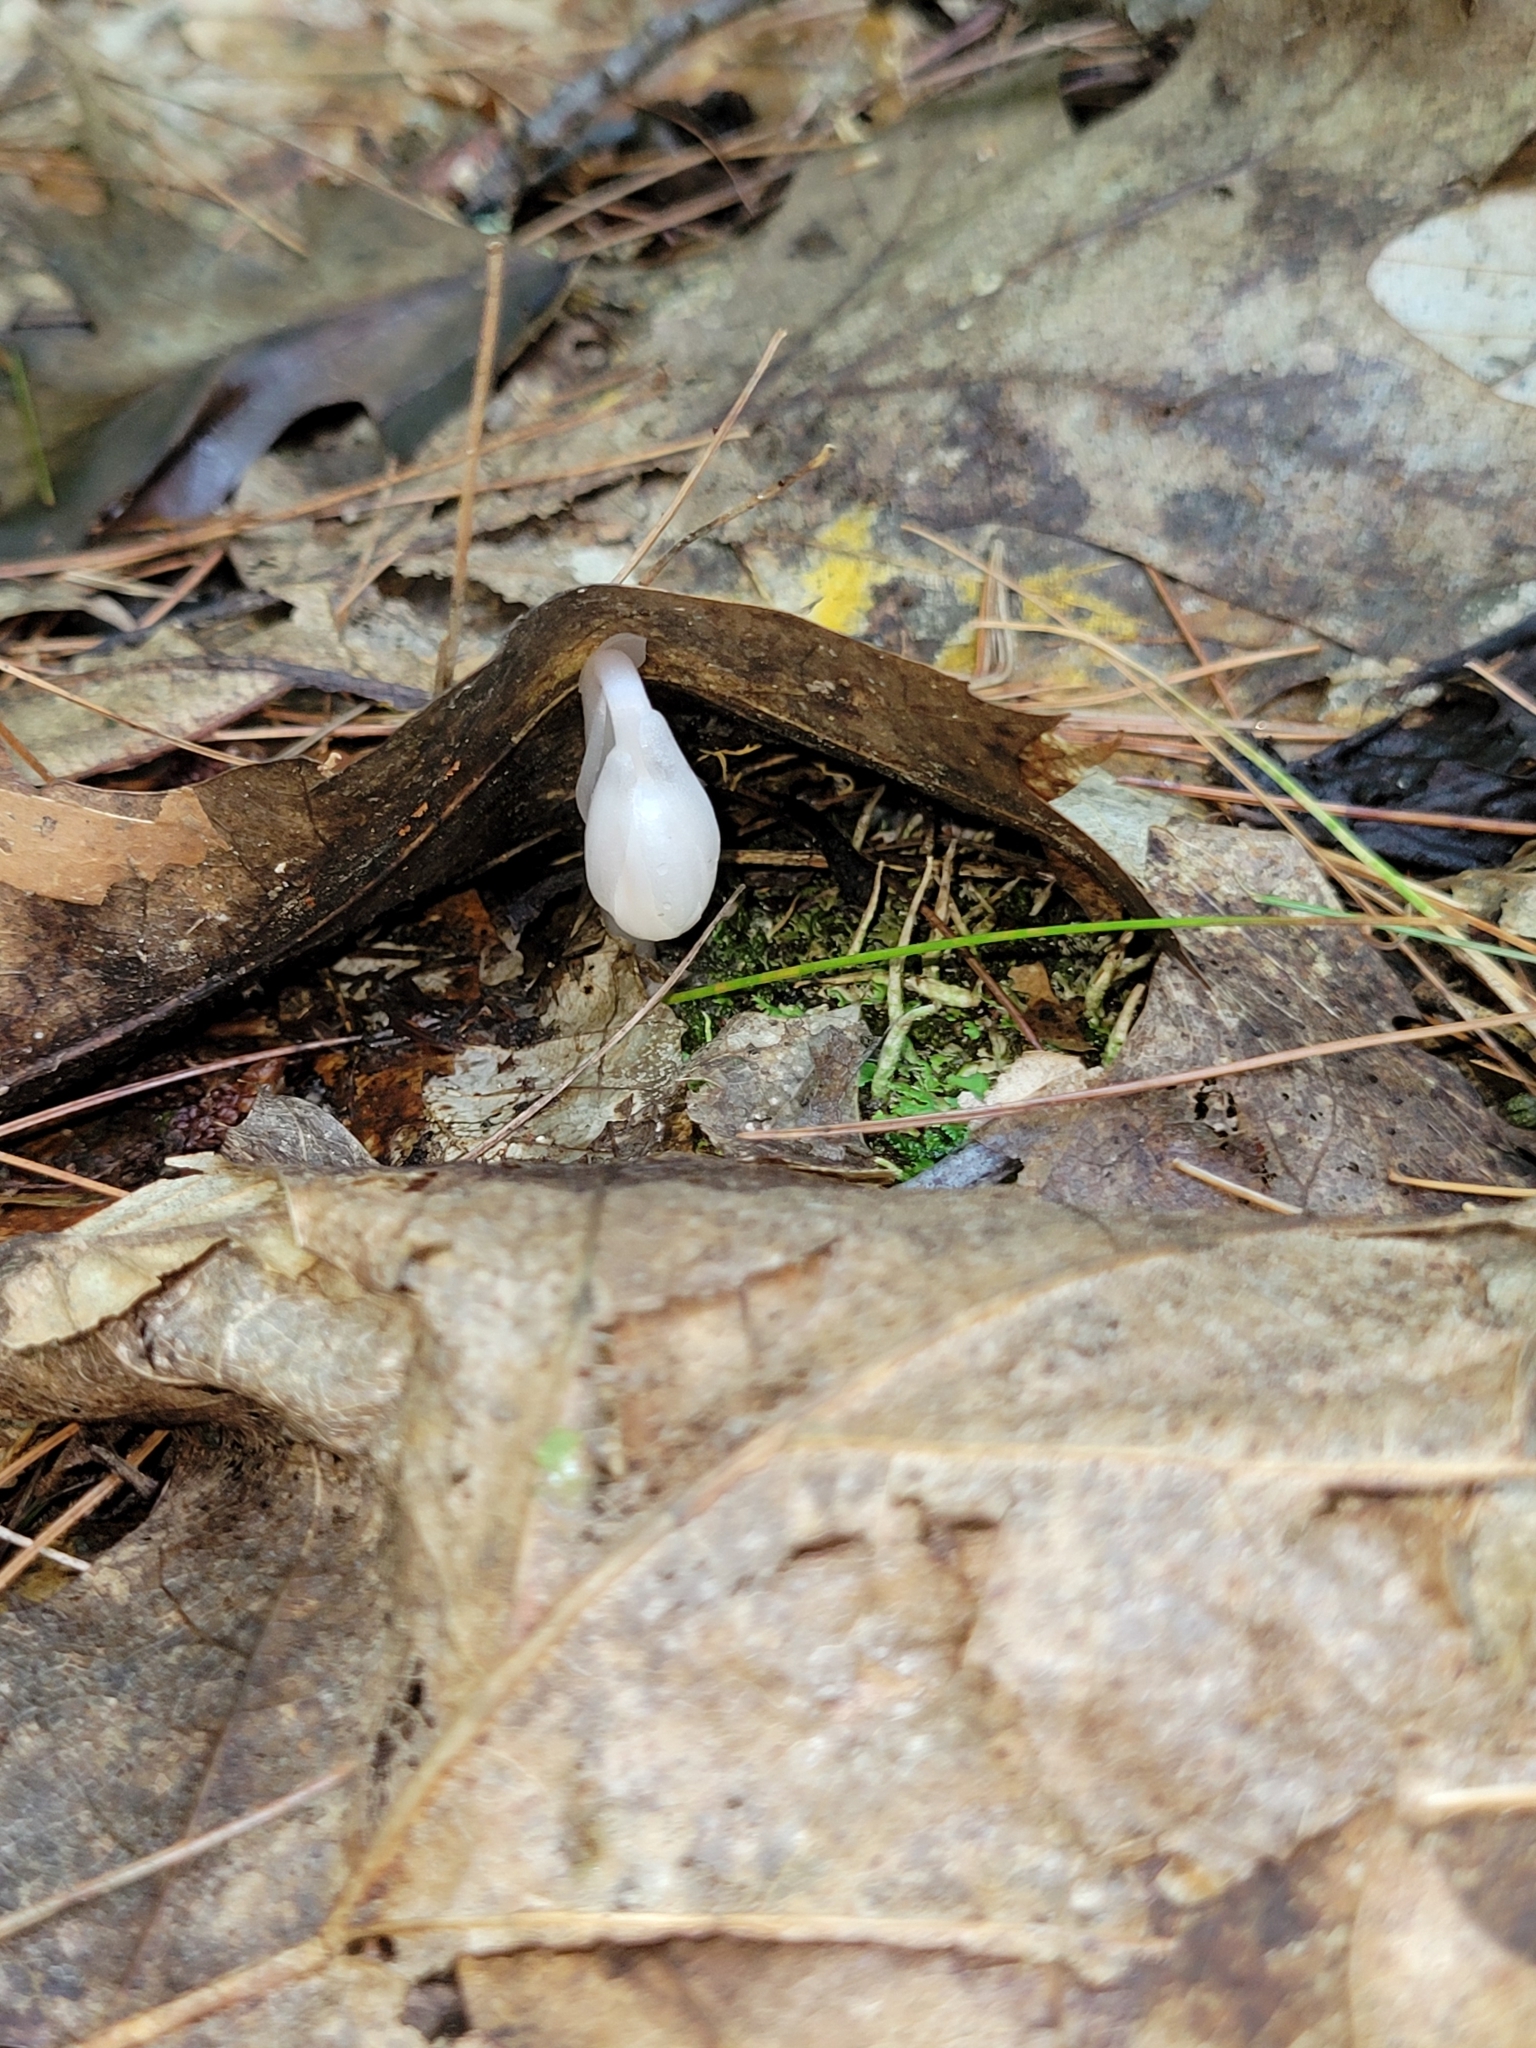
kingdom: Plantae
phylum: Tracheophyta
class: Magnoliopsida
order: Ericales
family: Ericaceae
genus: Monotropa
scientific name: Monotropa uniflora
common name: Convulsion root
